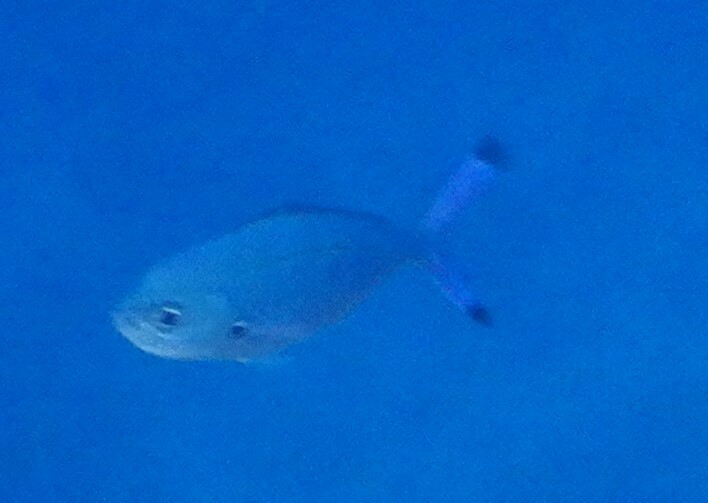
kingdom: Animalia
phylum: Chordata
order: Perciformes
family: Caesionidae
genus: Caesio
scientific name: Caesio lunaris
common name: Blue fusilier
